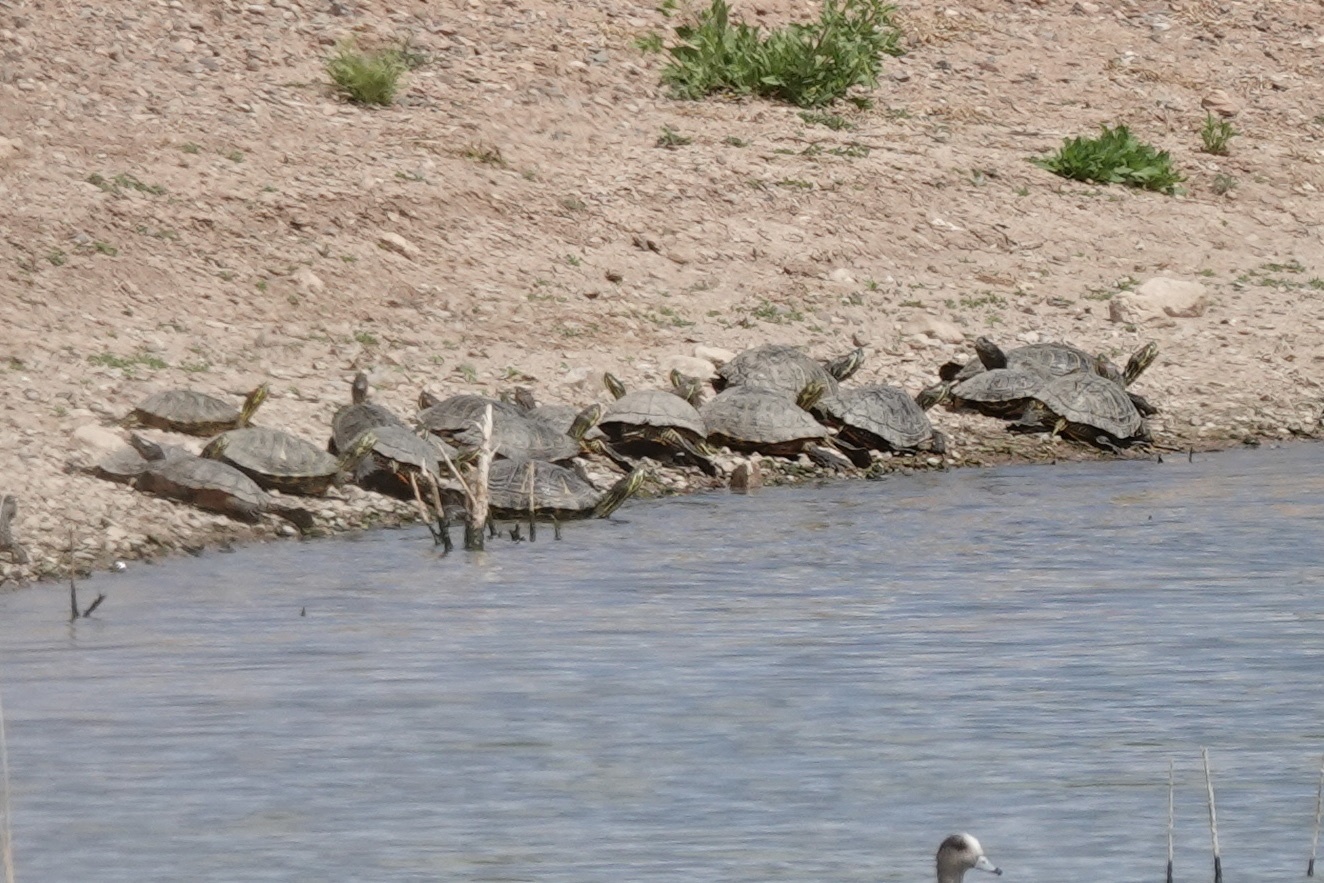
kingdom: Animalia
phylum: Chordata
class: Testudines
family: Emydidae
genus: Trachemys
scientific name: Trachemys scripta
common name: Slider
